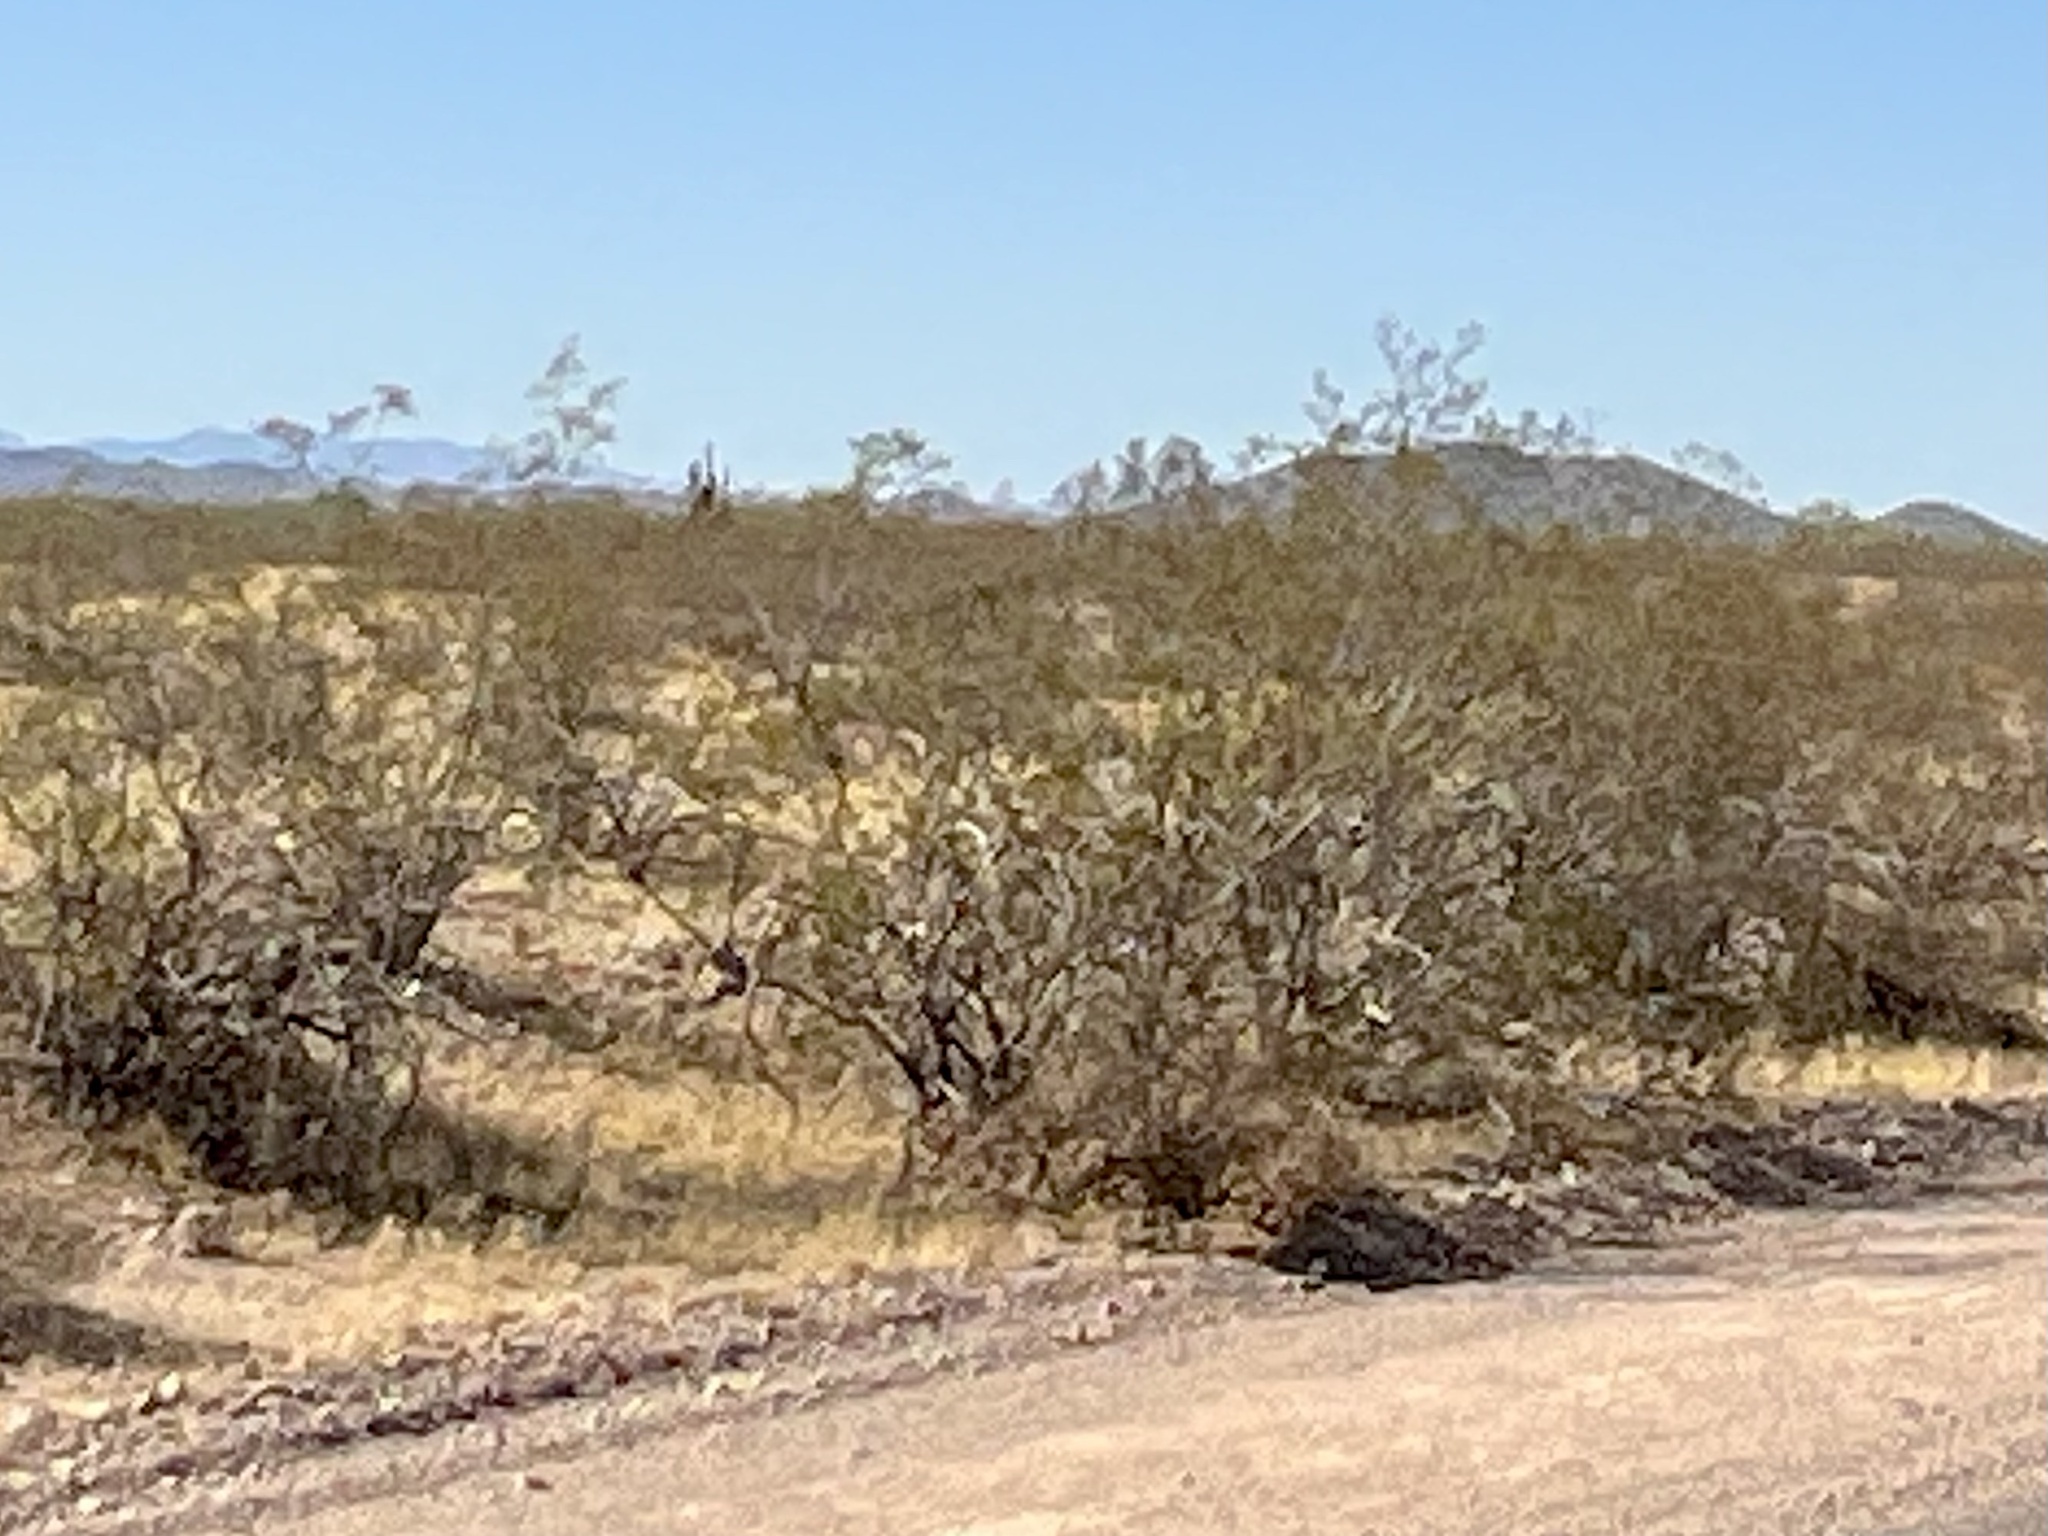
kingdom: Plantae
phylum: Tracheophyta
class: Magnoliopsida
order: Zygophyllales
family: Zygophyllaceae
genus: Larrea
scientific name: Larrea tridentata
